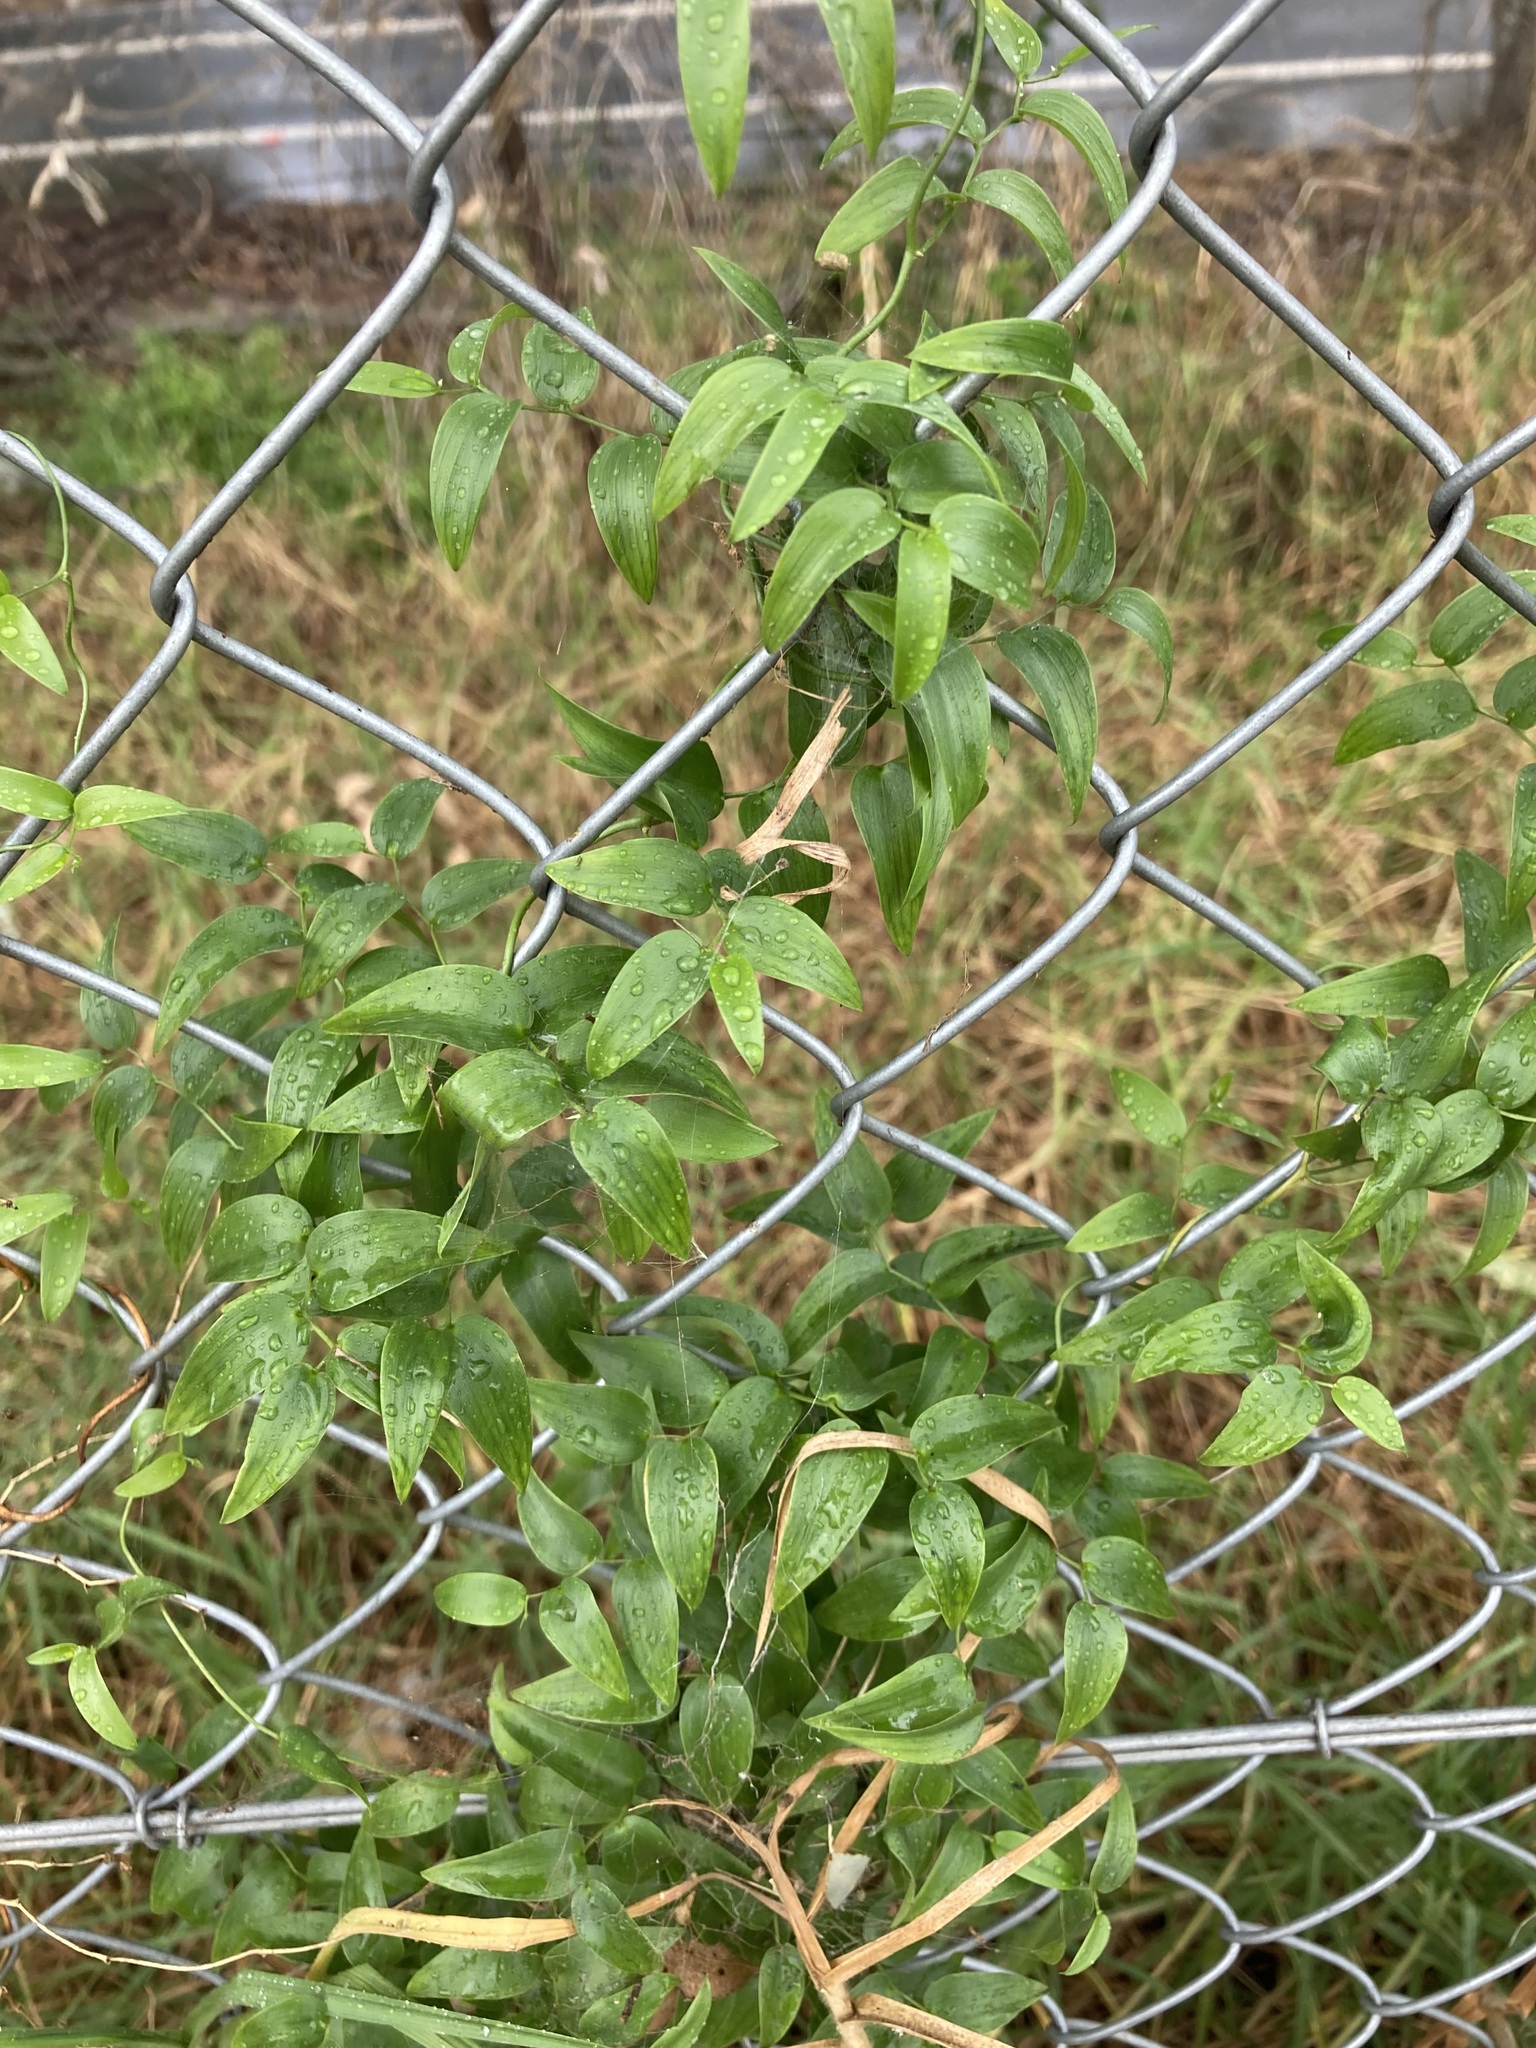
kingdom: Plantae
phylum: Tracheophyta
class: Liliopsida
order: Asparagales
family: Asparagaceae
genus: Asparagus
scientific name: Asparagus asparagoides
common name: African asparagus fern
